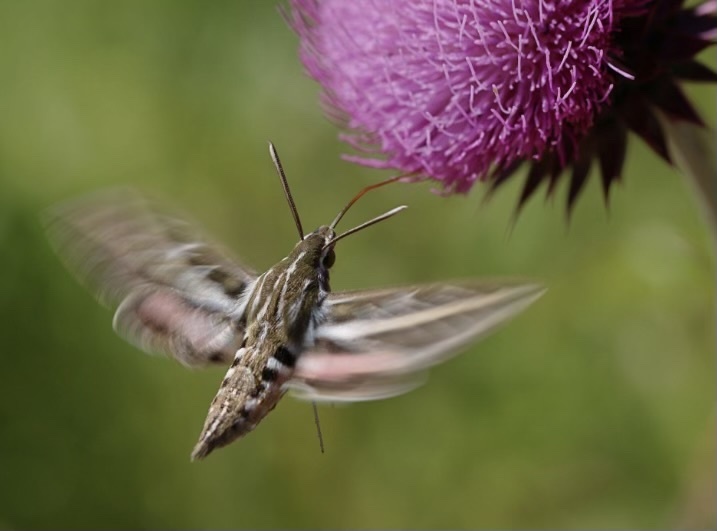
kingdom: Animalia
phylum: Arthropoda
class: Insecta
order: Lepidoptera
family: Sphingidae
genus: Hyles
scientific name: Hyles lineata
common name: White-lined sphinx
